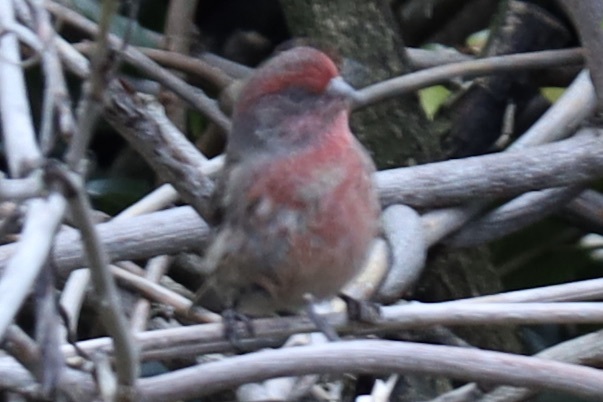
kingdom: Animalia
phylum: Chordata
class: Aves
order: Passeriformes
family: Fringillidae
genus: Haemorhous
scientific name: Haemorhous mexicanus
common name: House finch
